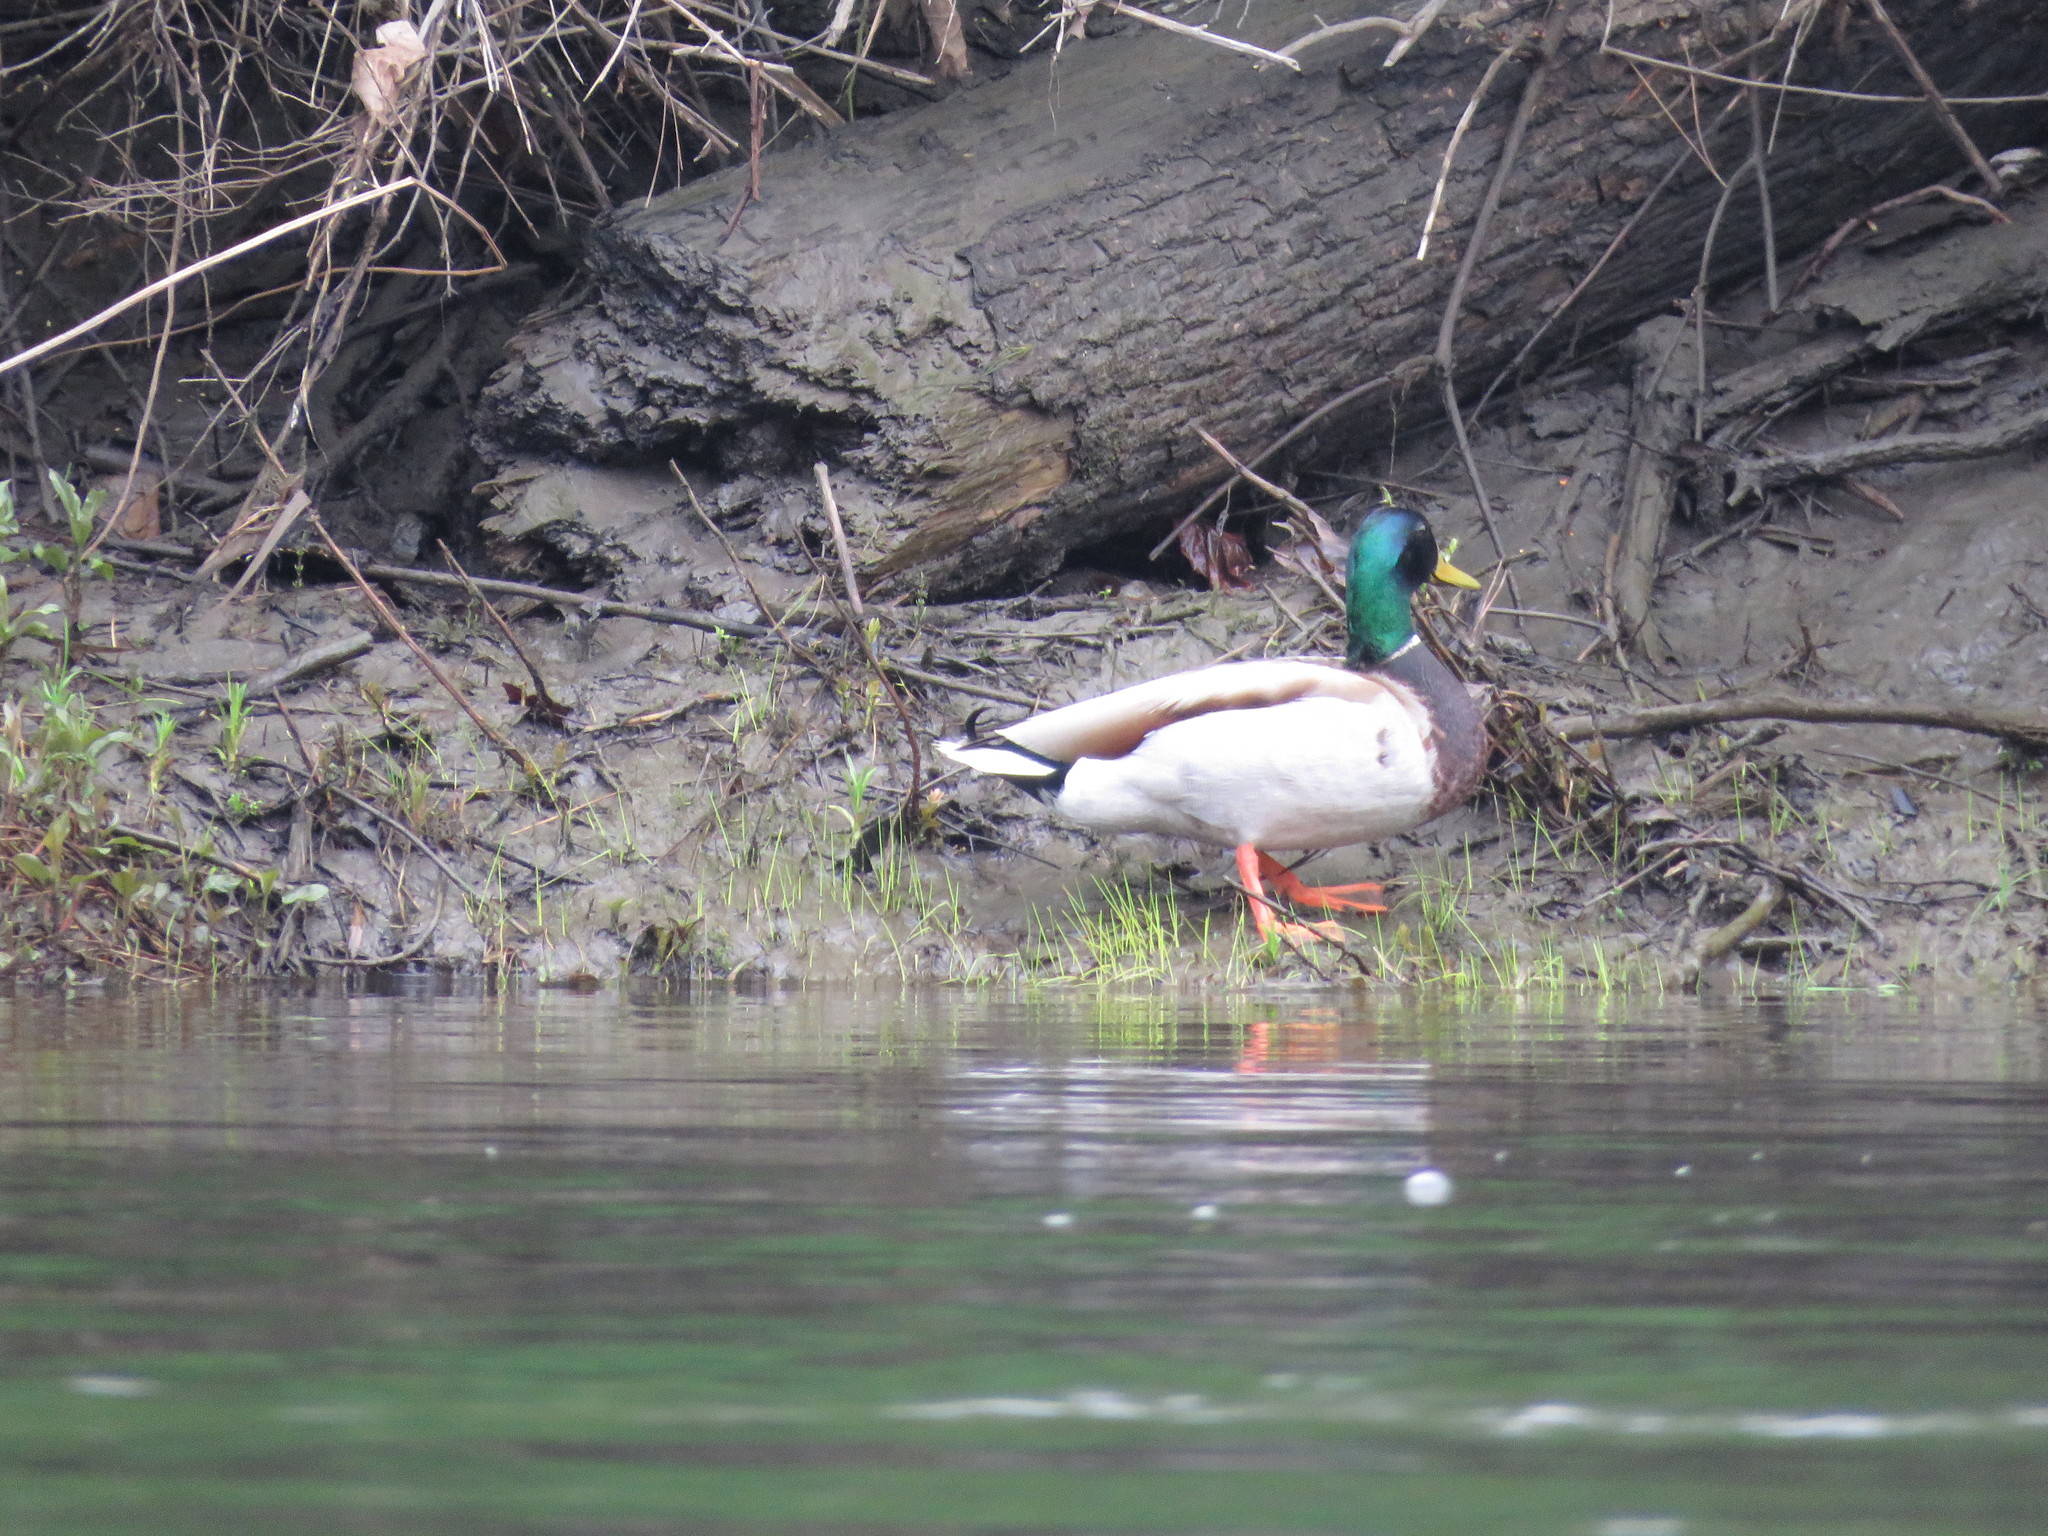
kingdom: Animalia
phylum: Chordata
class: Aves
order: Anseriformes
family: Anatidae
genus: Anas
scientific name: Anas platyrhynchos
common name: Mallard
